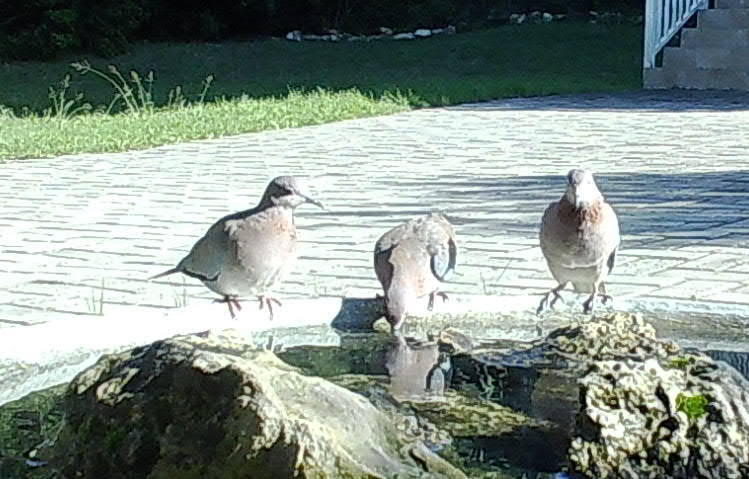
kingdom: Animalia
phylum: Chordata
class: Aves
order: Columbiformes
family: Columbidae
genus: Spilopelia
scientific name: Spilopelia senegalensis
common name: Laughing dove
